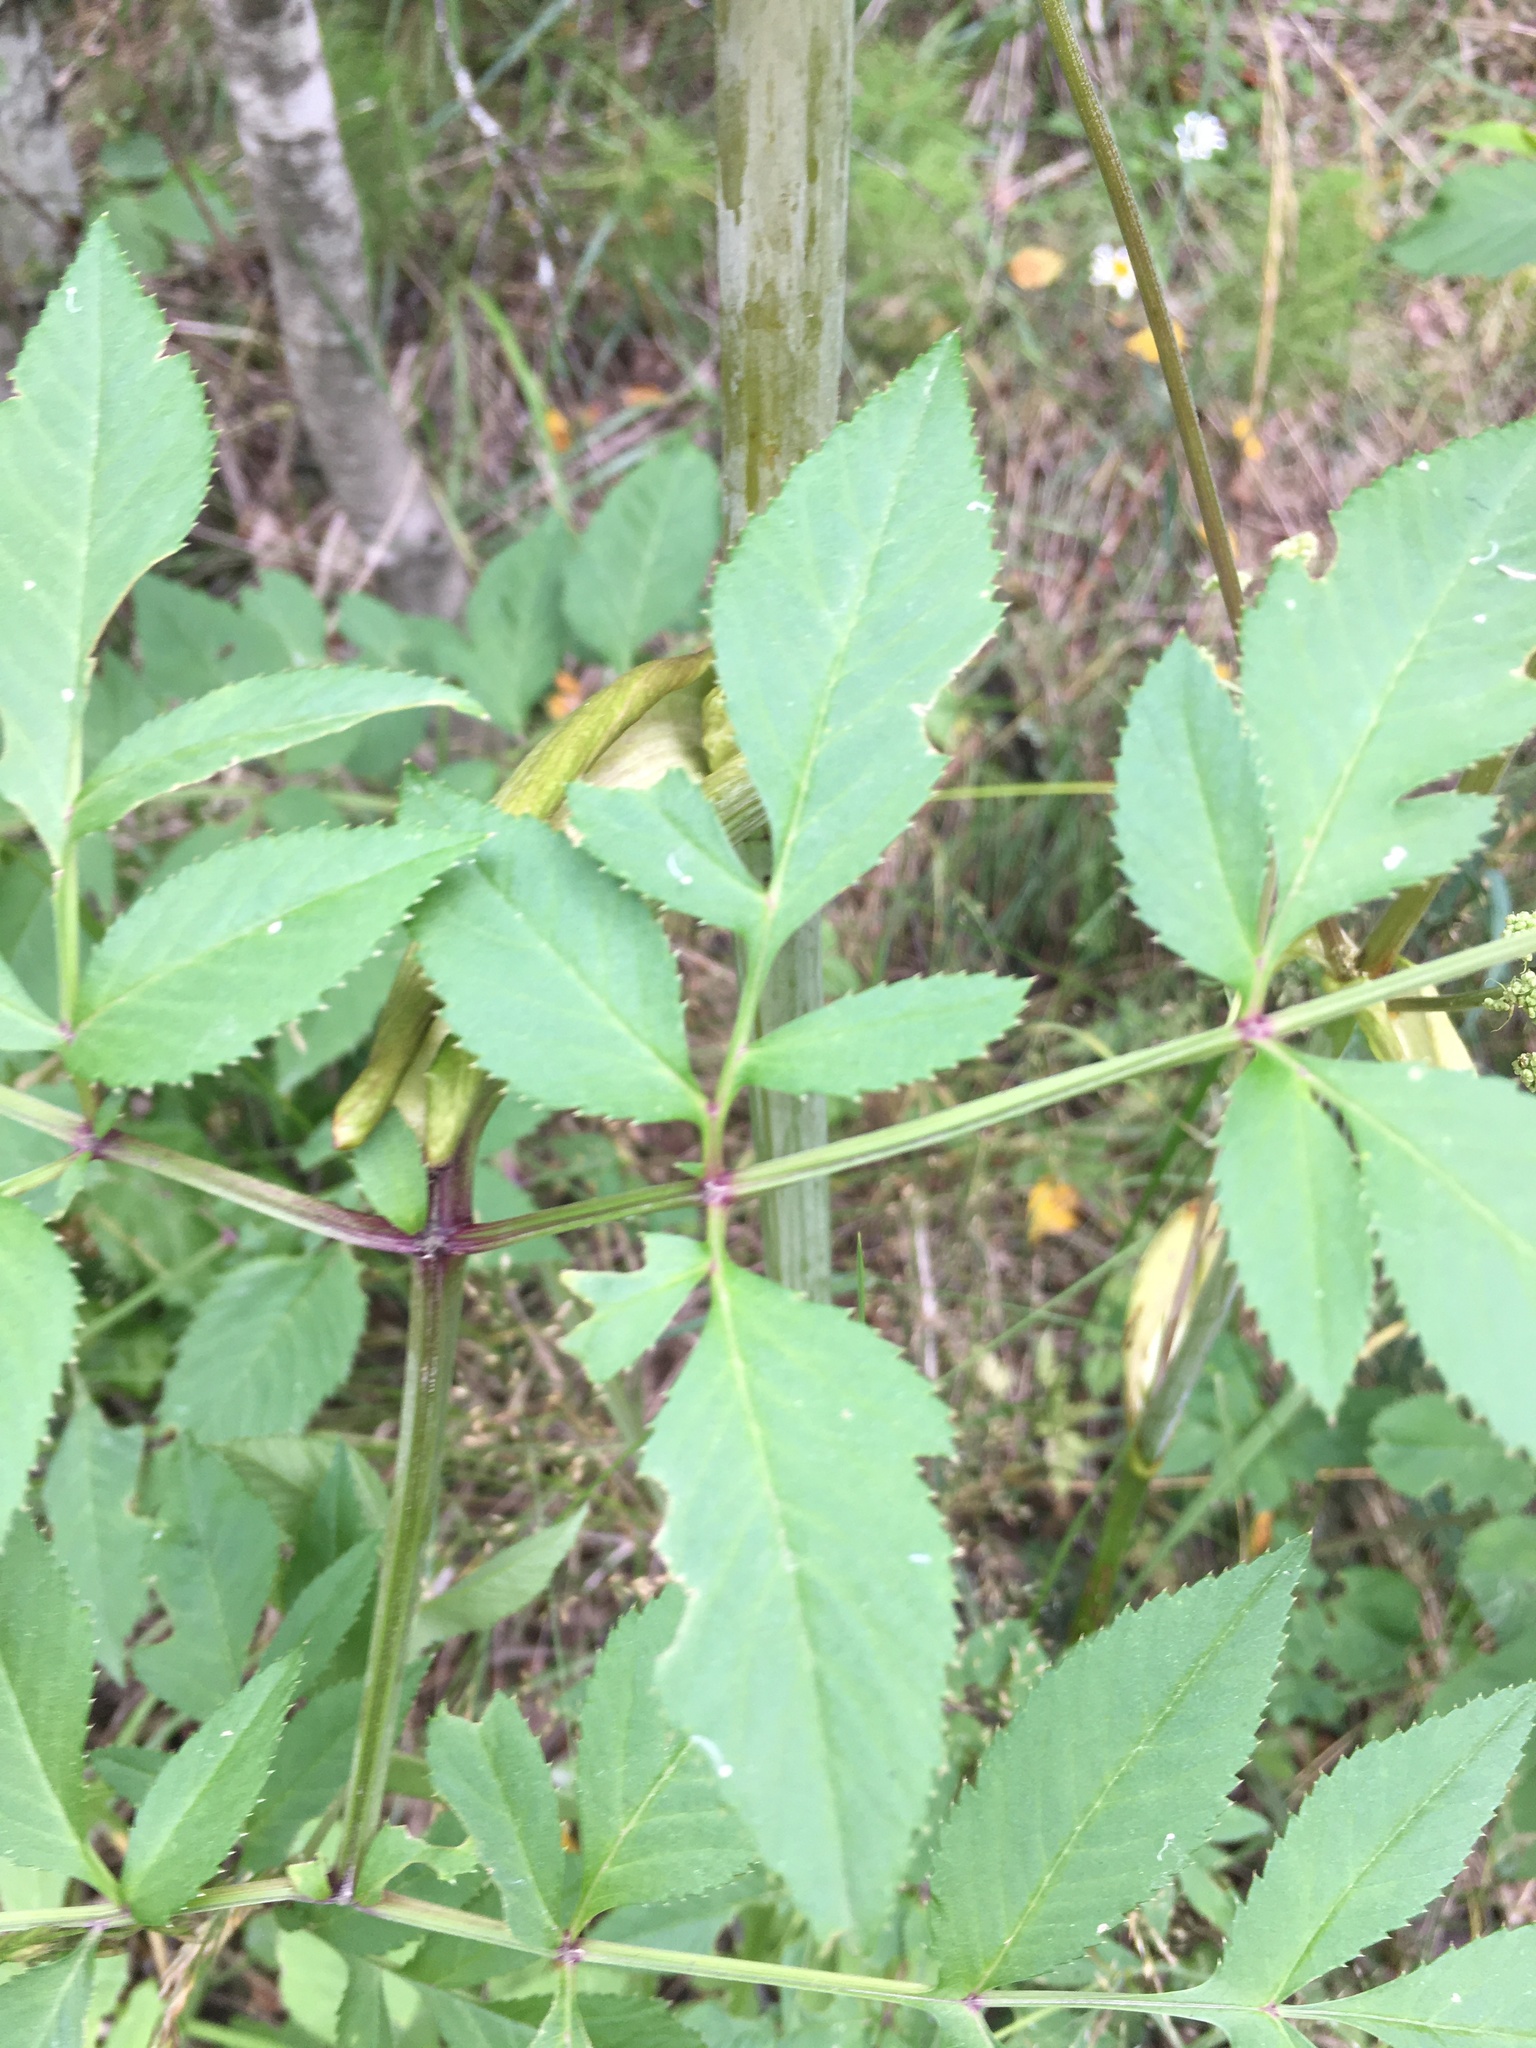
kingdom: Plantae
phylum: Tracheophyta
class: Magnoliopsida
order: Apiales
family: Apiaceae
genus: Angelica
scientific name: Angelica sylvestris
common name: Wild angelica
